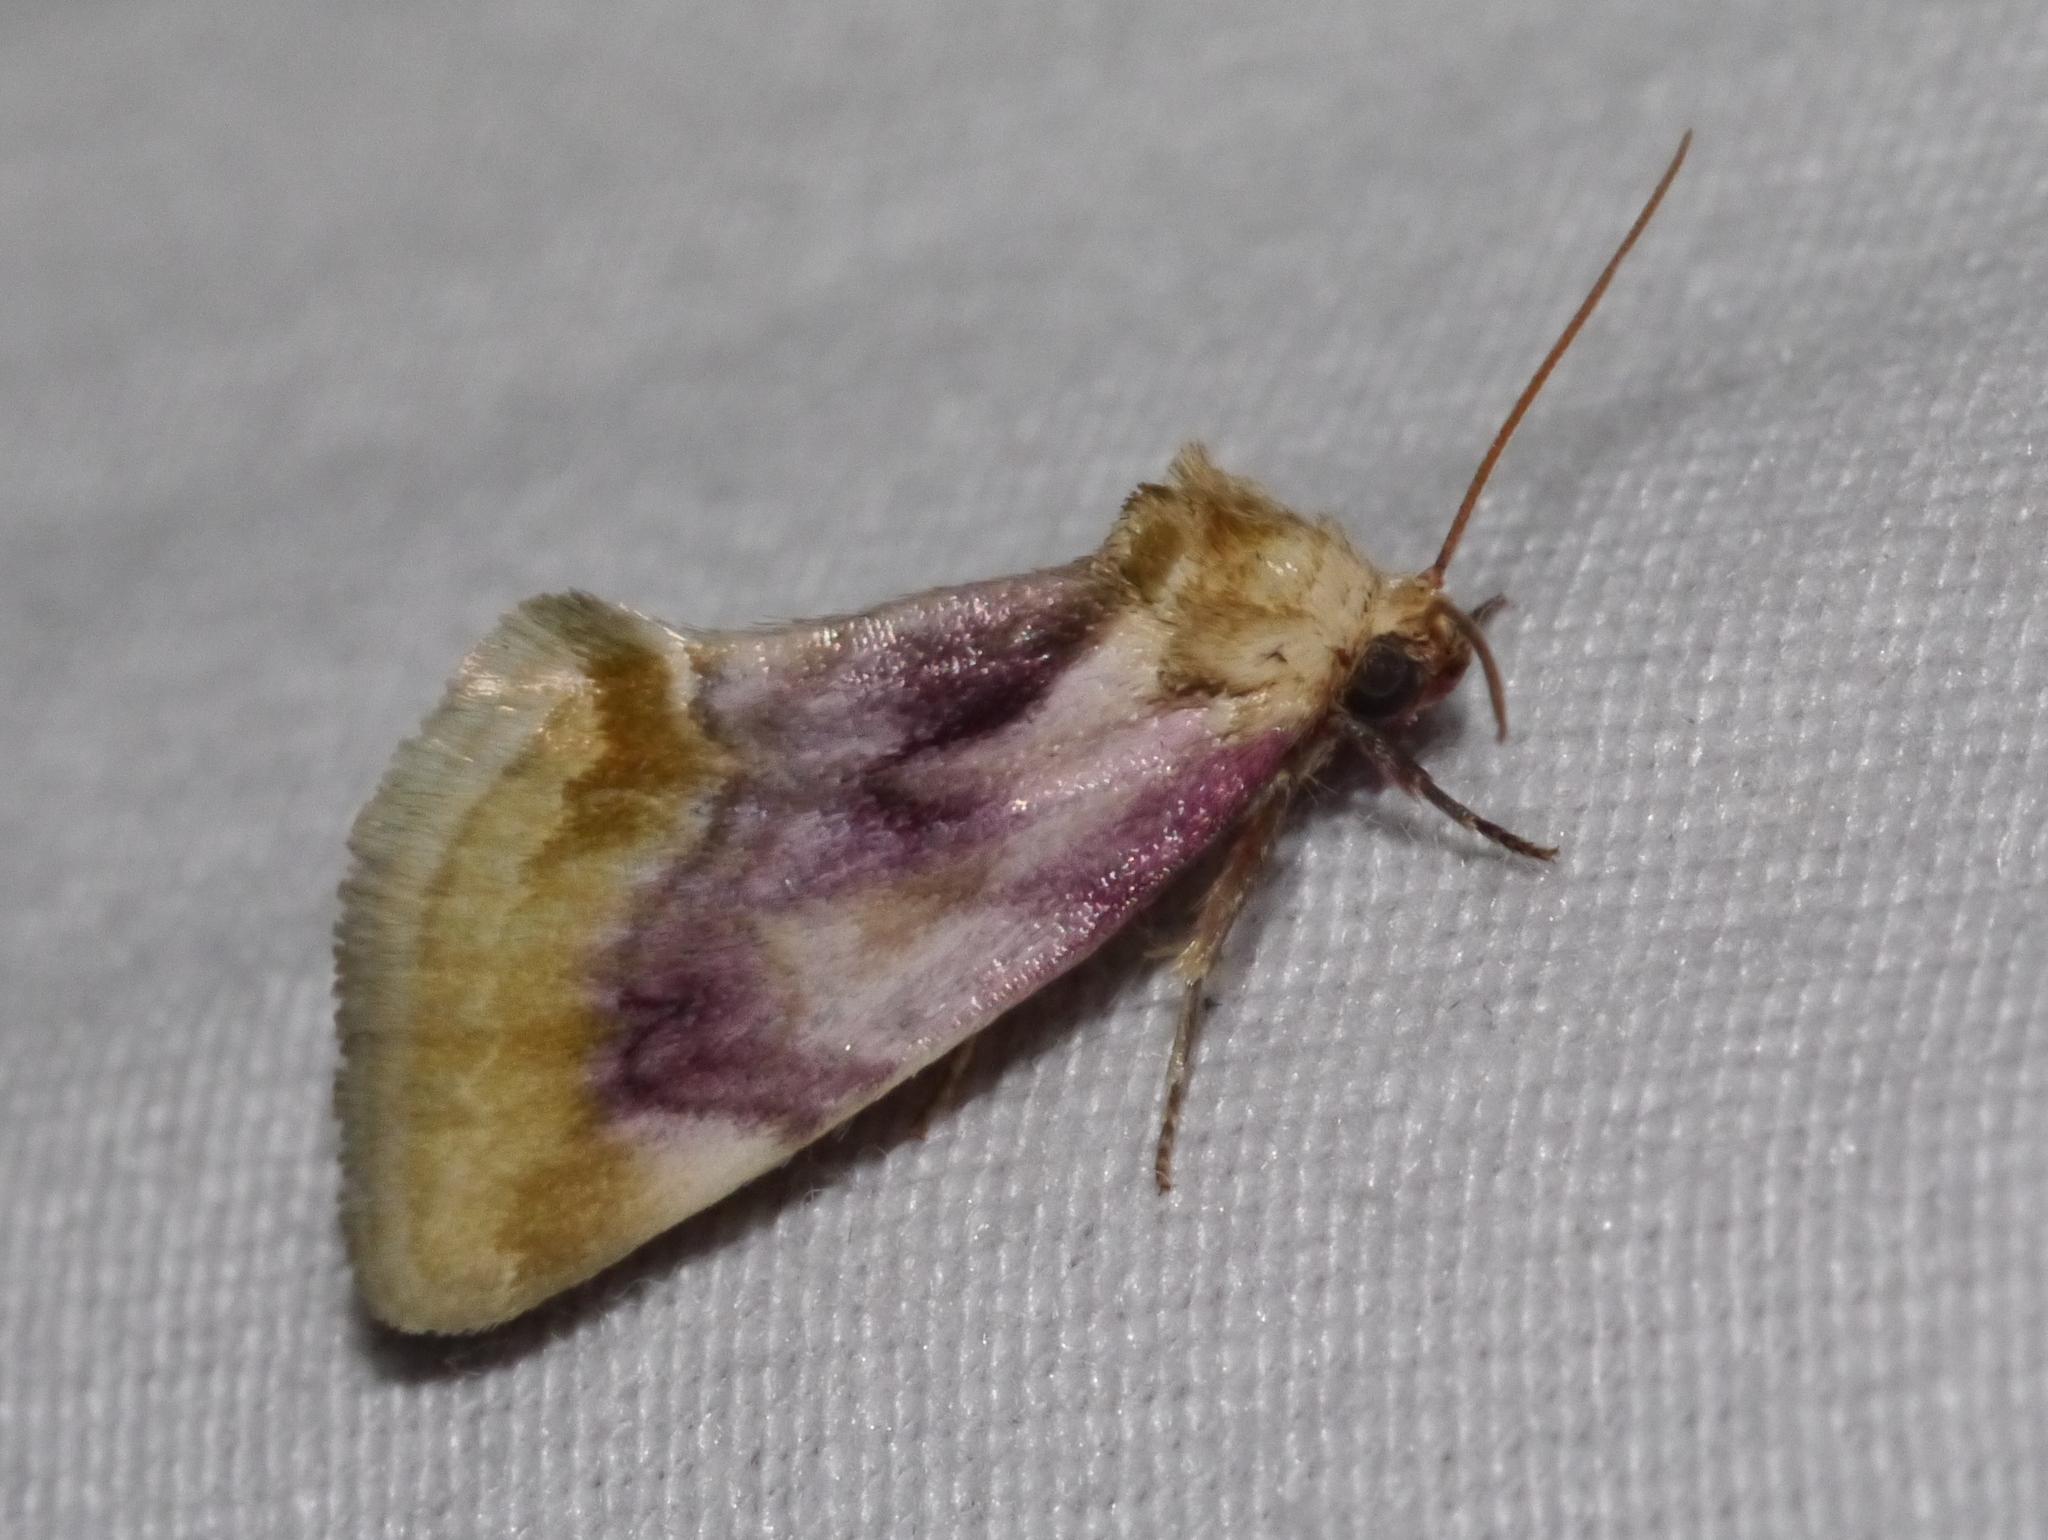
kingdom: Animalia
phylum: Arthropoda
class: Insecta
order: Lepidoptera
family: Noctuidae
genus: Chamaeclea
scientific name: Chamaeclea pernana
